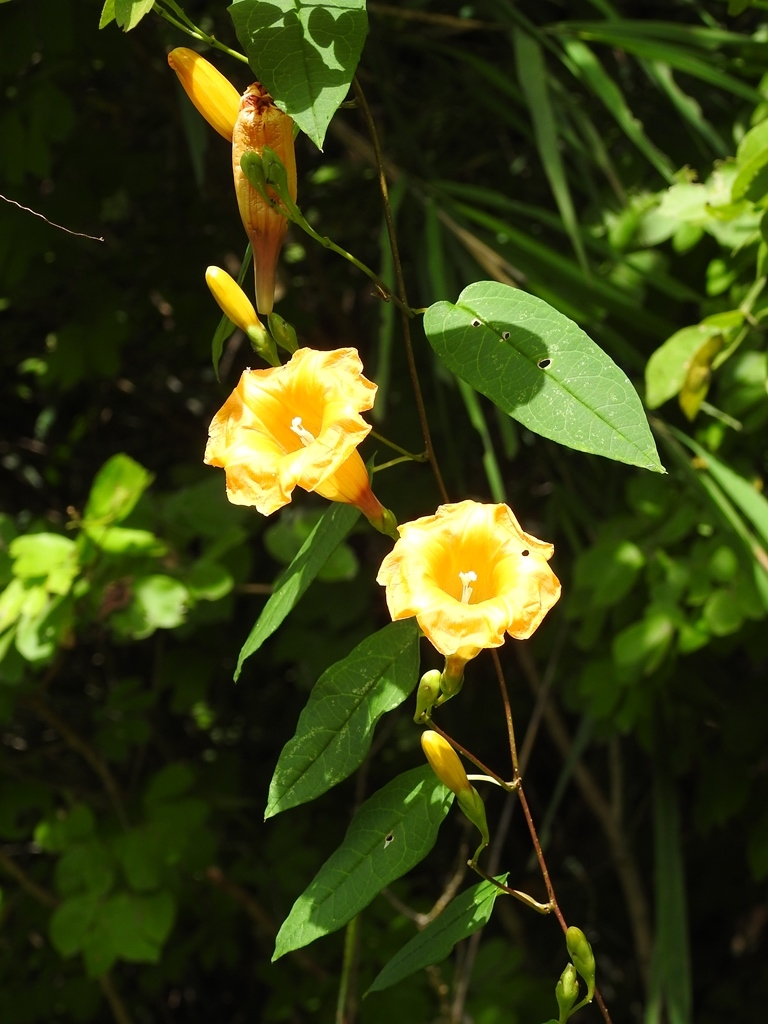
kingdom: Plantae
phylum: Tracheophyta
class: Magnoliopsida
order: Solanales
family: Convolvulaceae
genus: Ipomoea
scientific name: Ipomoea aurantiaca
